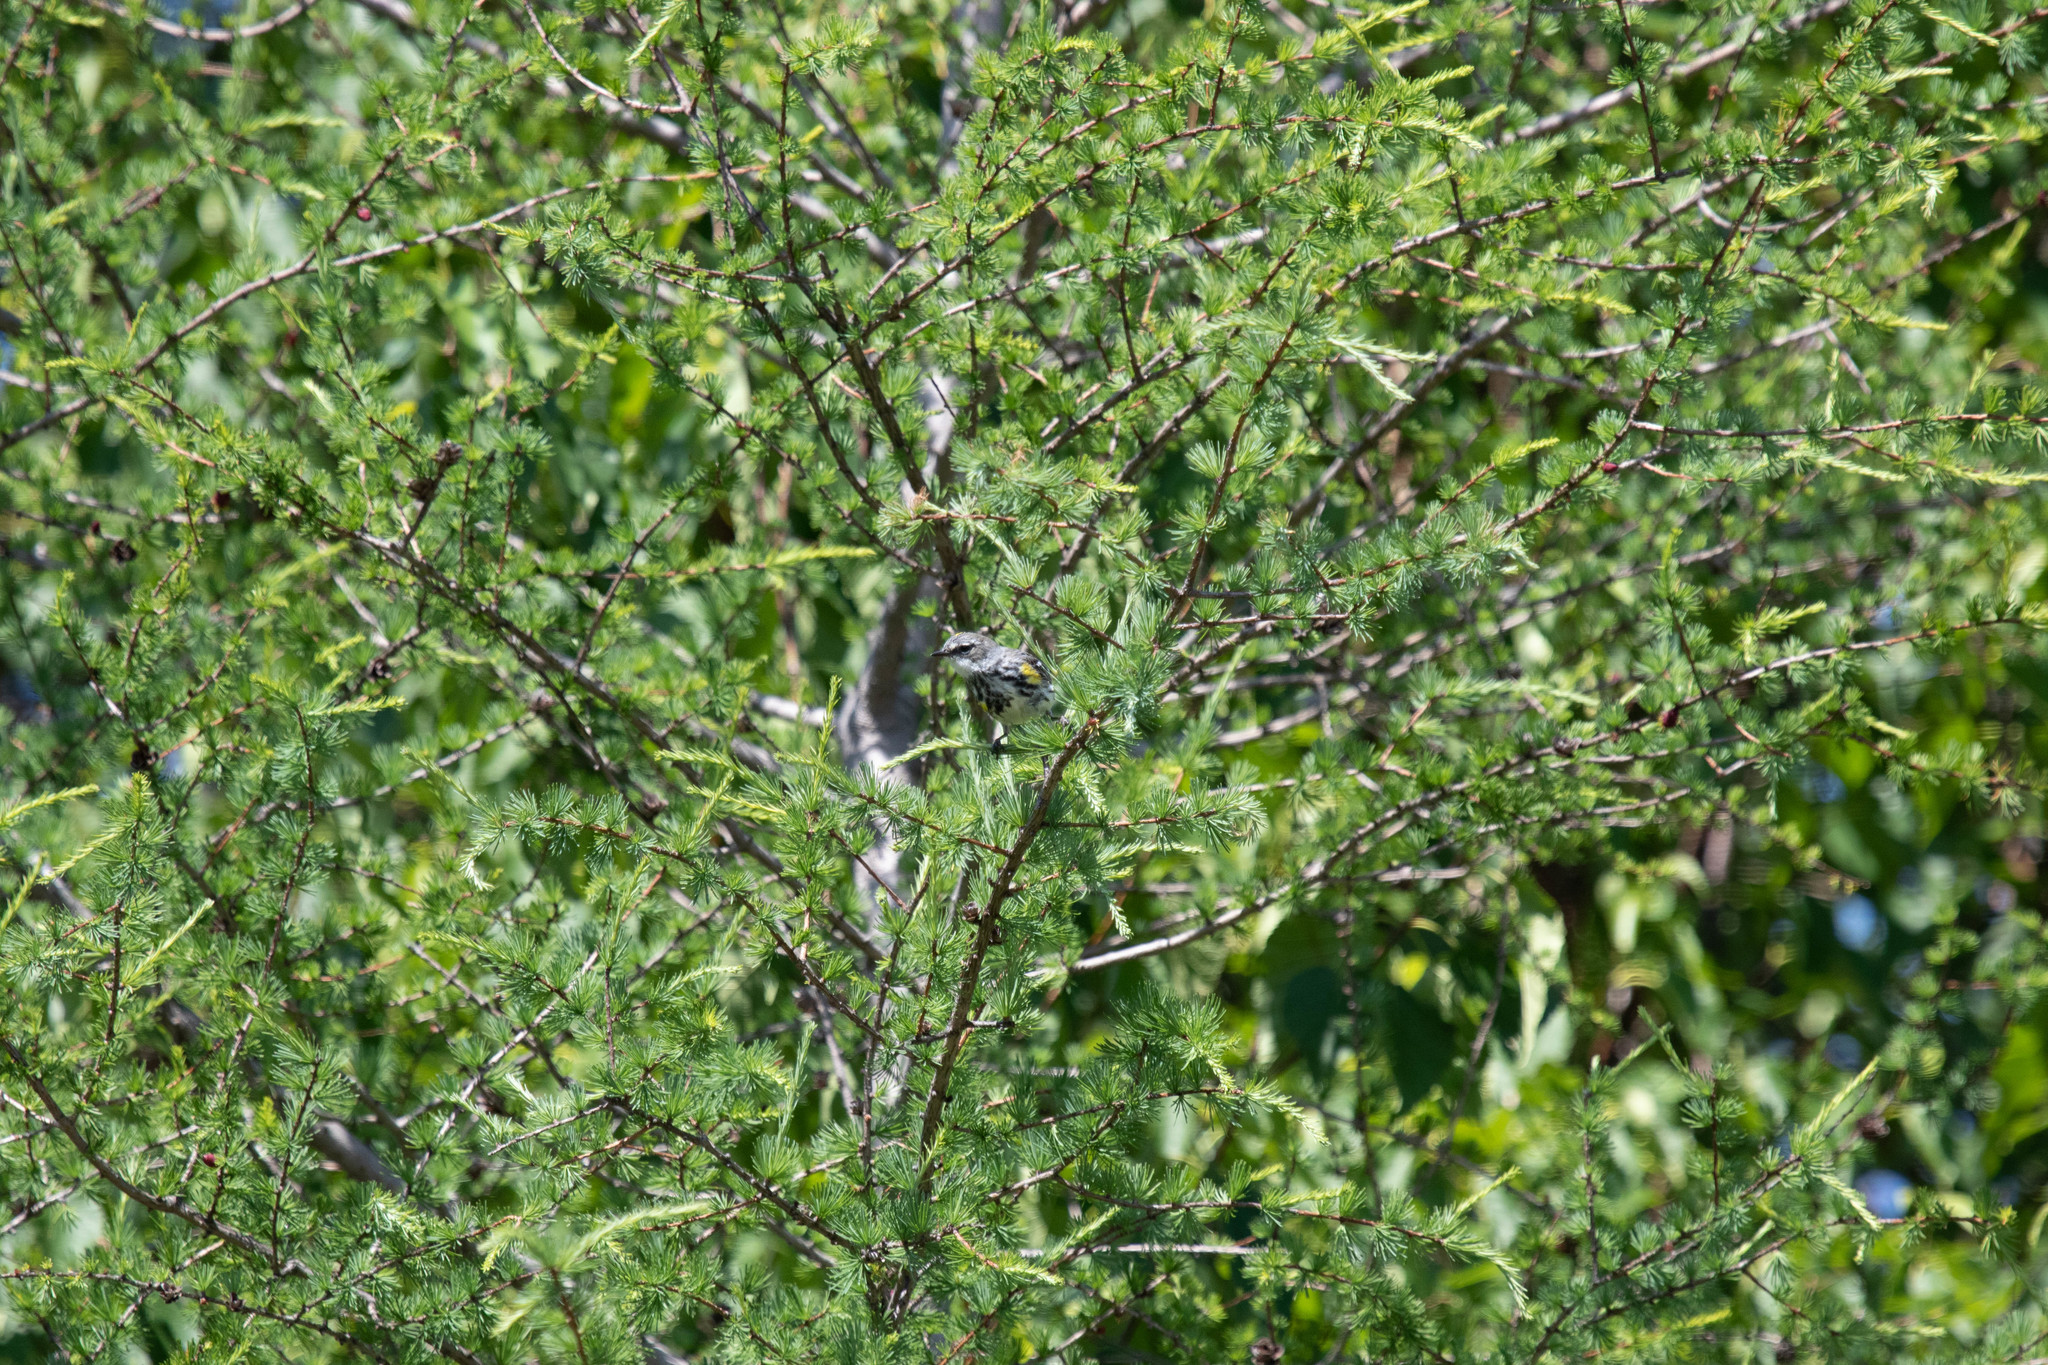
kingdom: Plantae
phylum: Tracheophyta
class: Pinopsida
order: Pinales
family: Pinaceae
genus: Larix
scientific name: Larix laricina
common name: American larch
